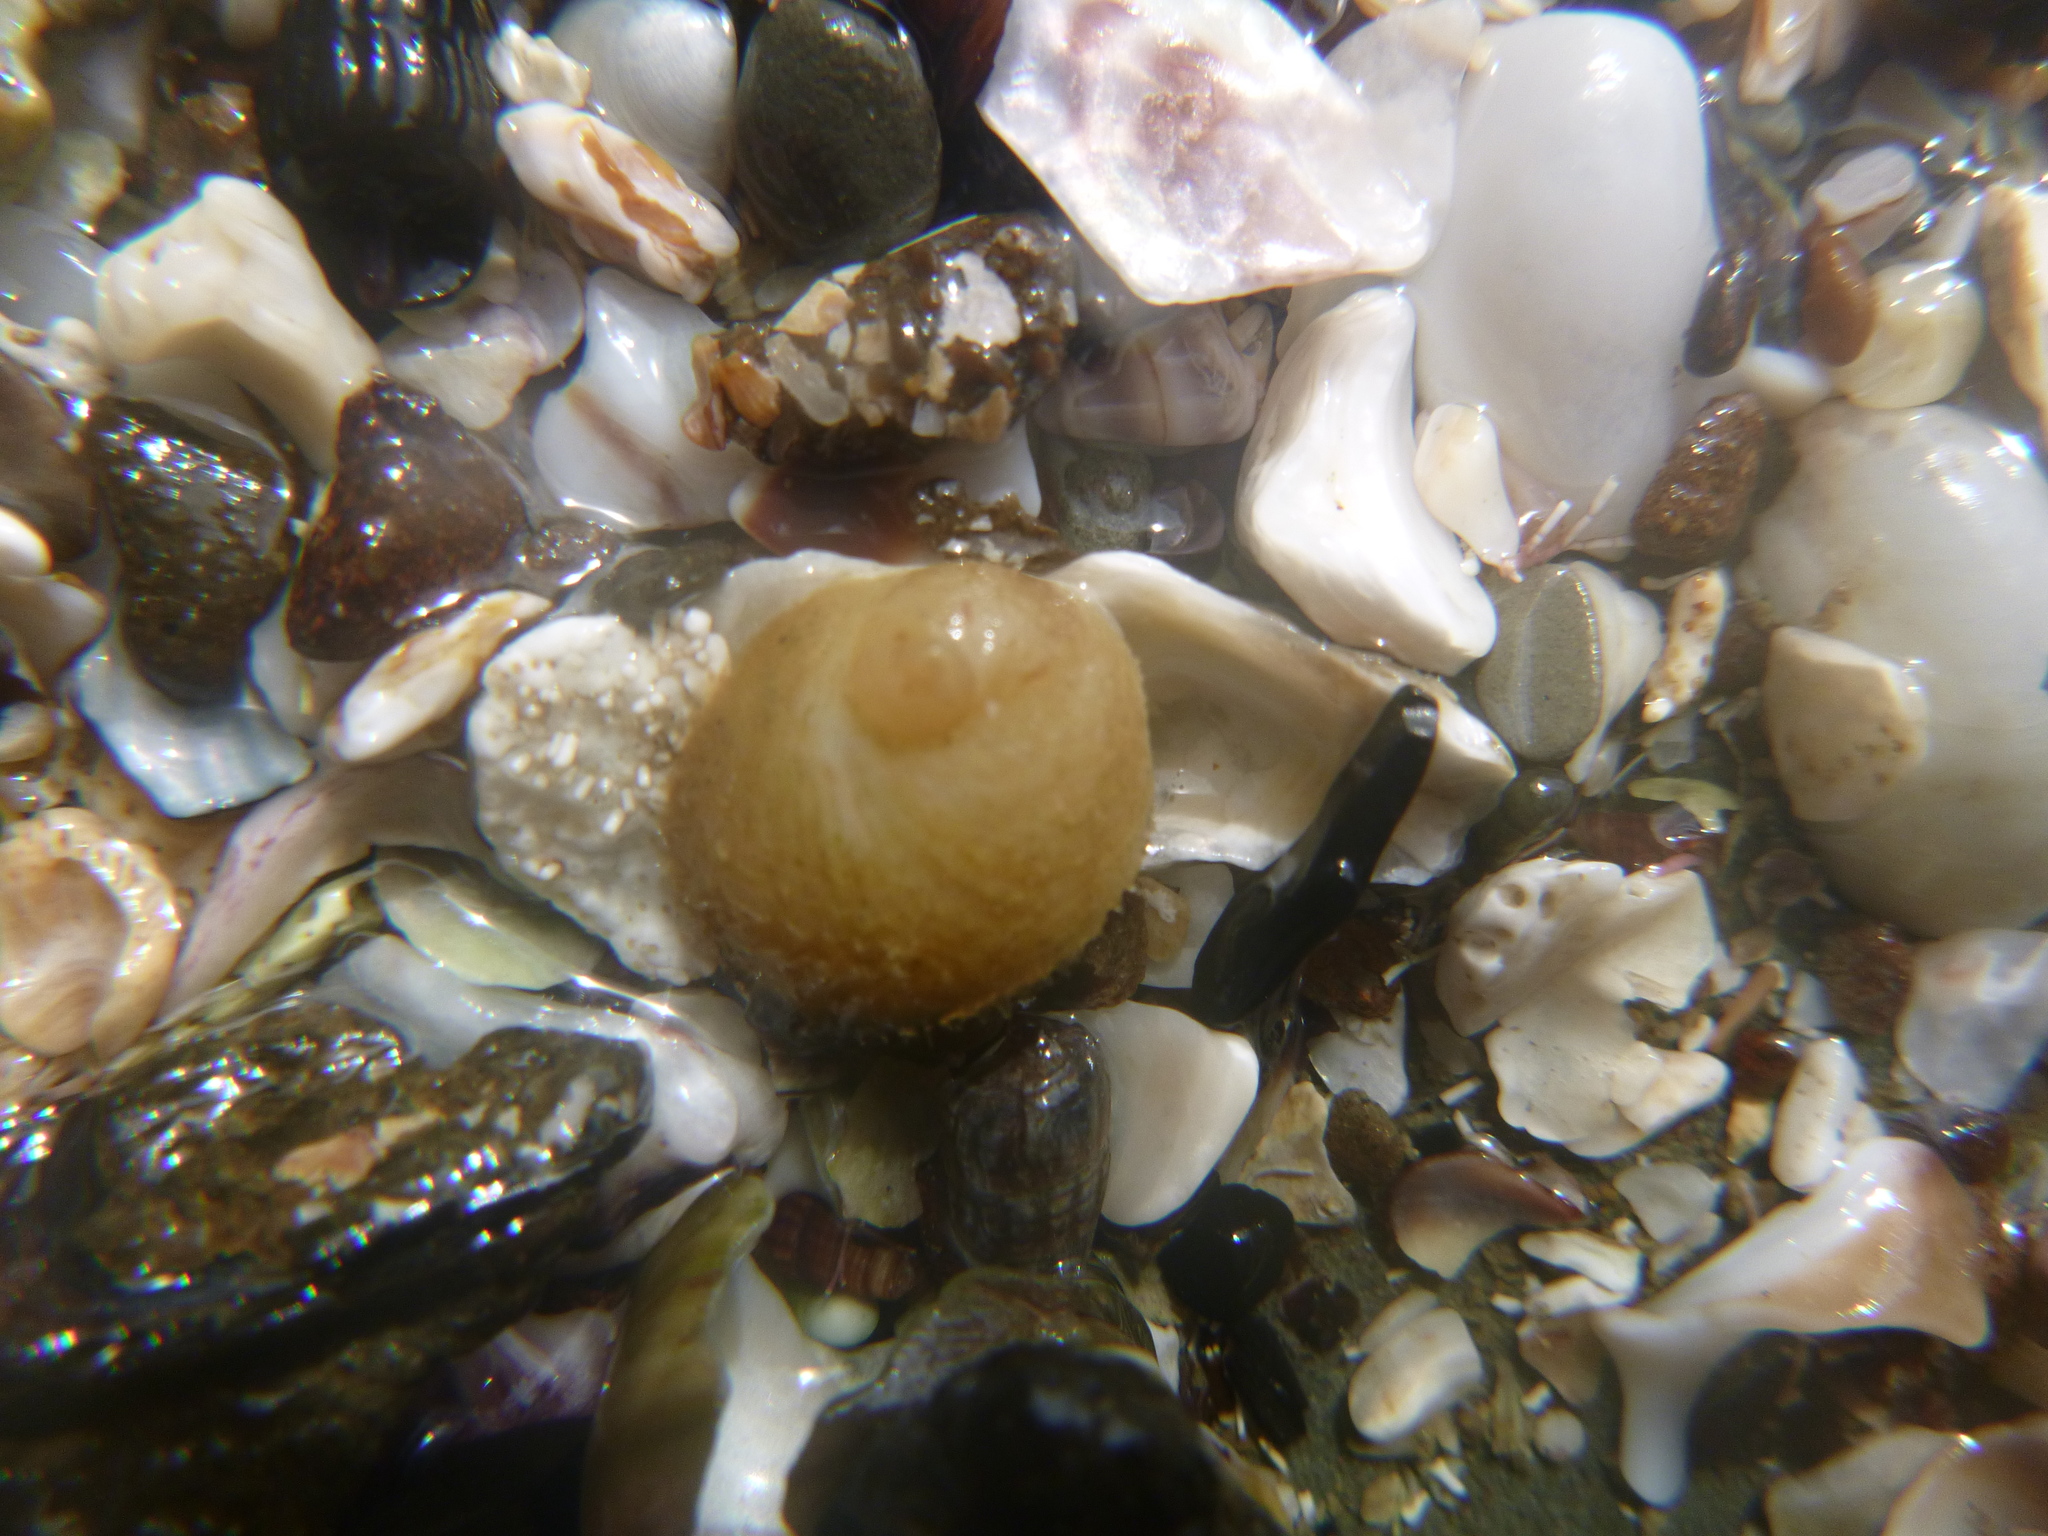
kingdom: Animalia
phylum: Mollusca
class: Gastropoda
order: Littorinimorpha
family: Calyptraeidae
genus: Sigapatella
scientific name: Sigapatella novaezelandiae
